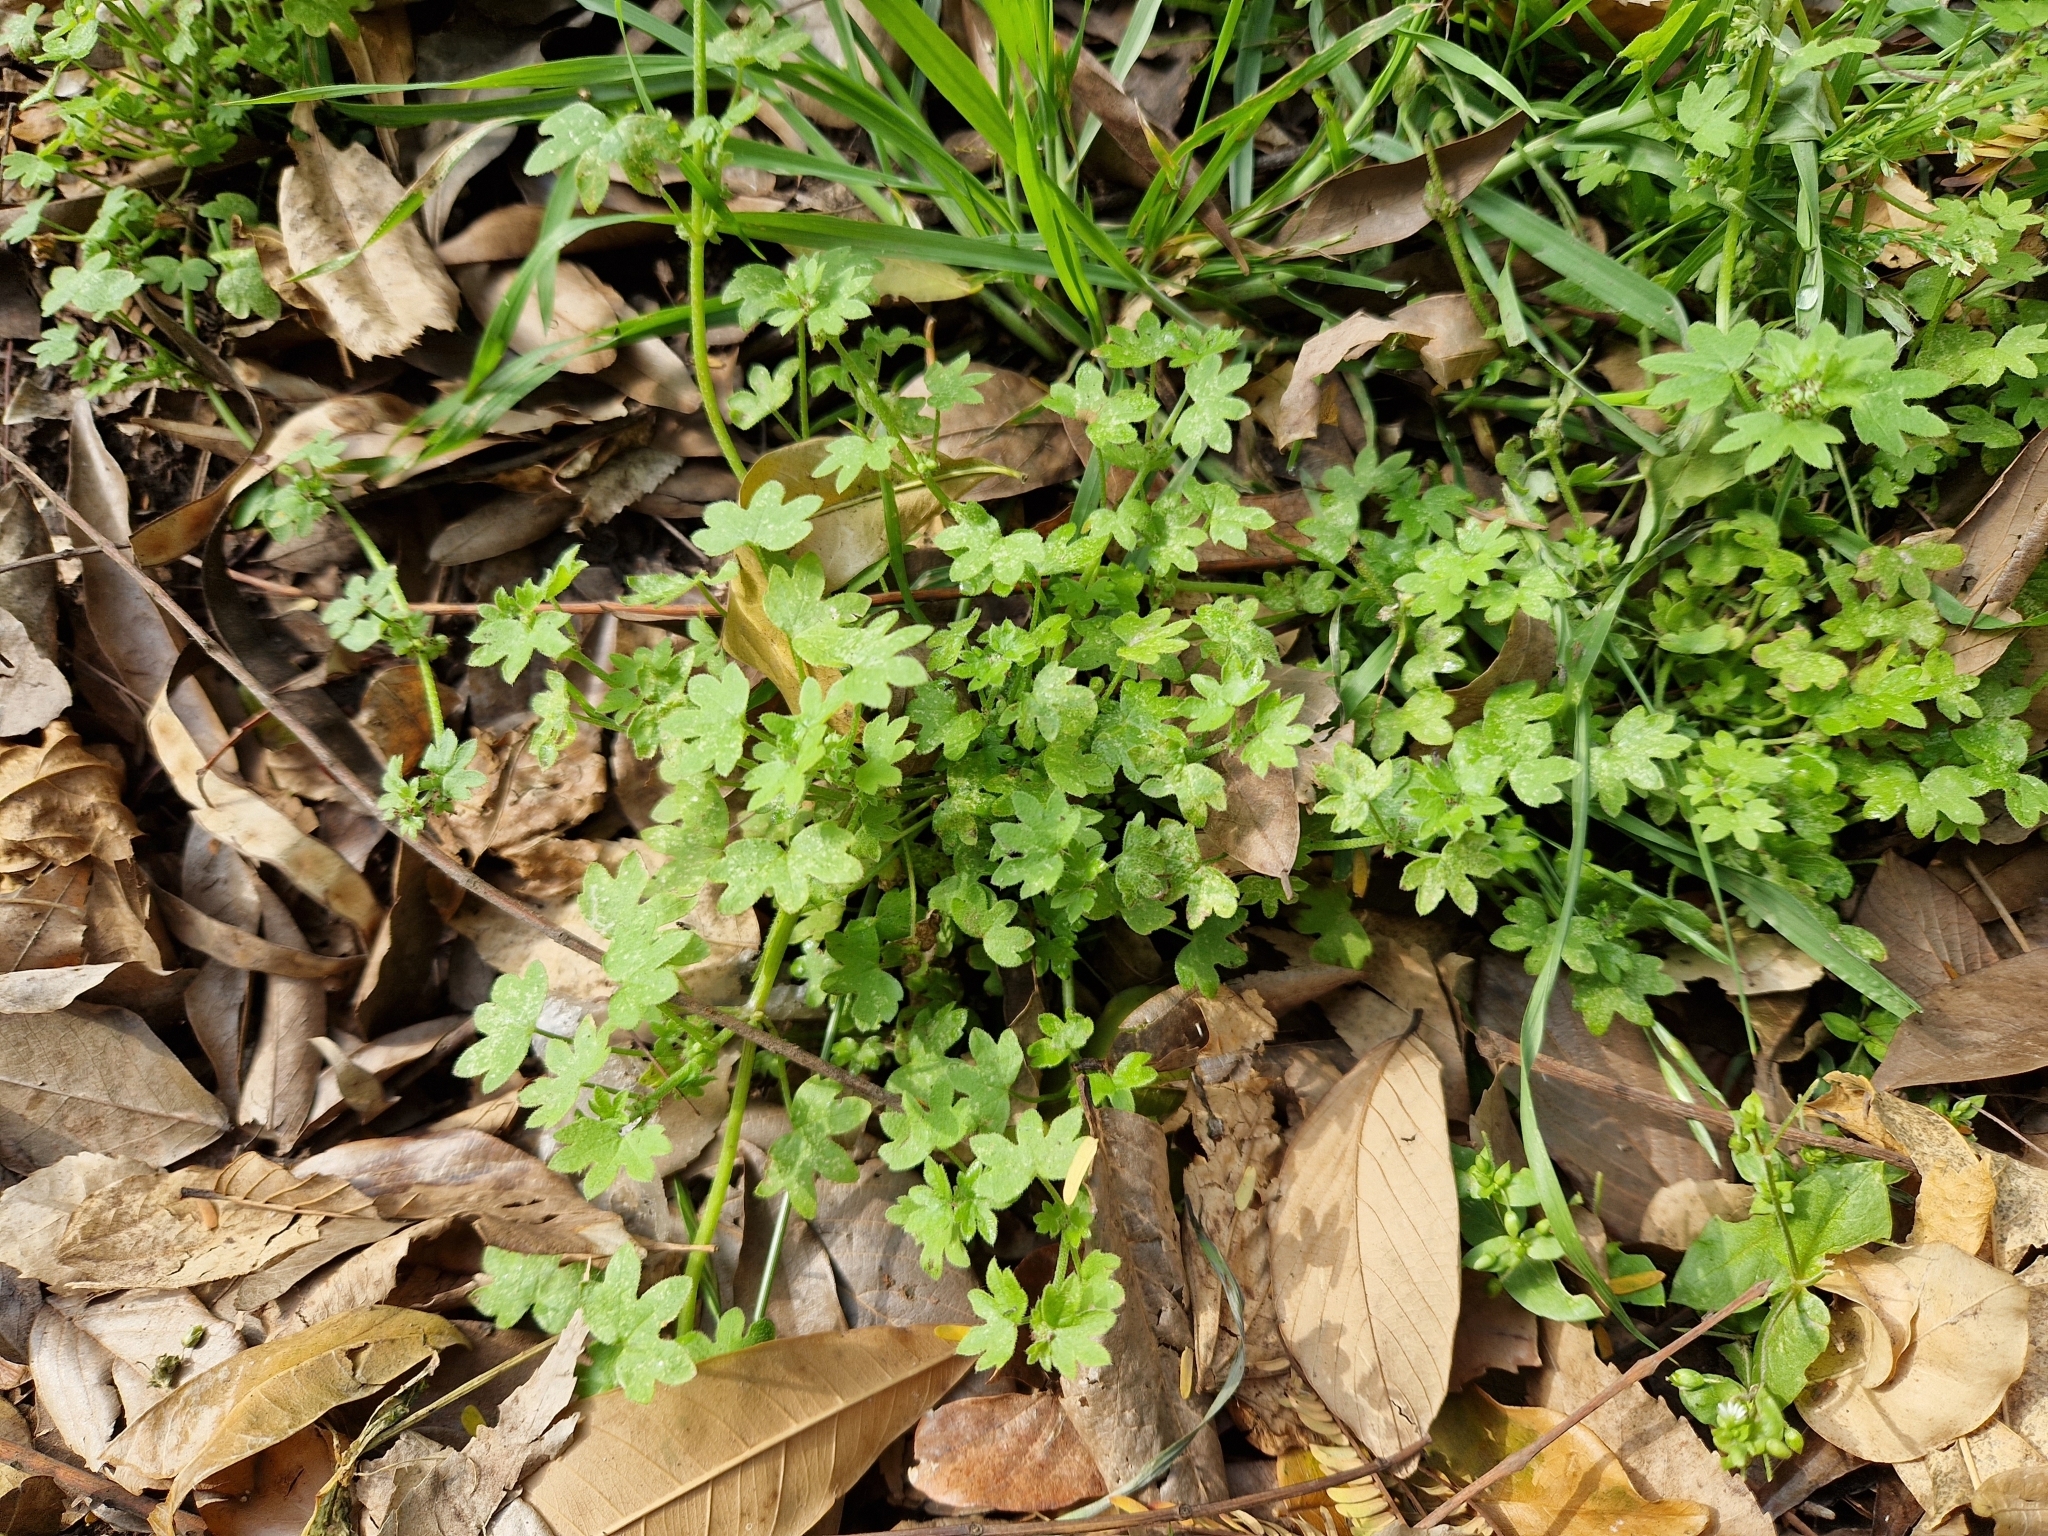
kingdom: Plantae
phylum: Tracheophyta
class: Magnoliopsida
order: Apiales
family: Apiaceae
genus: Bowlesia
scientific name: Bowlesia incana
